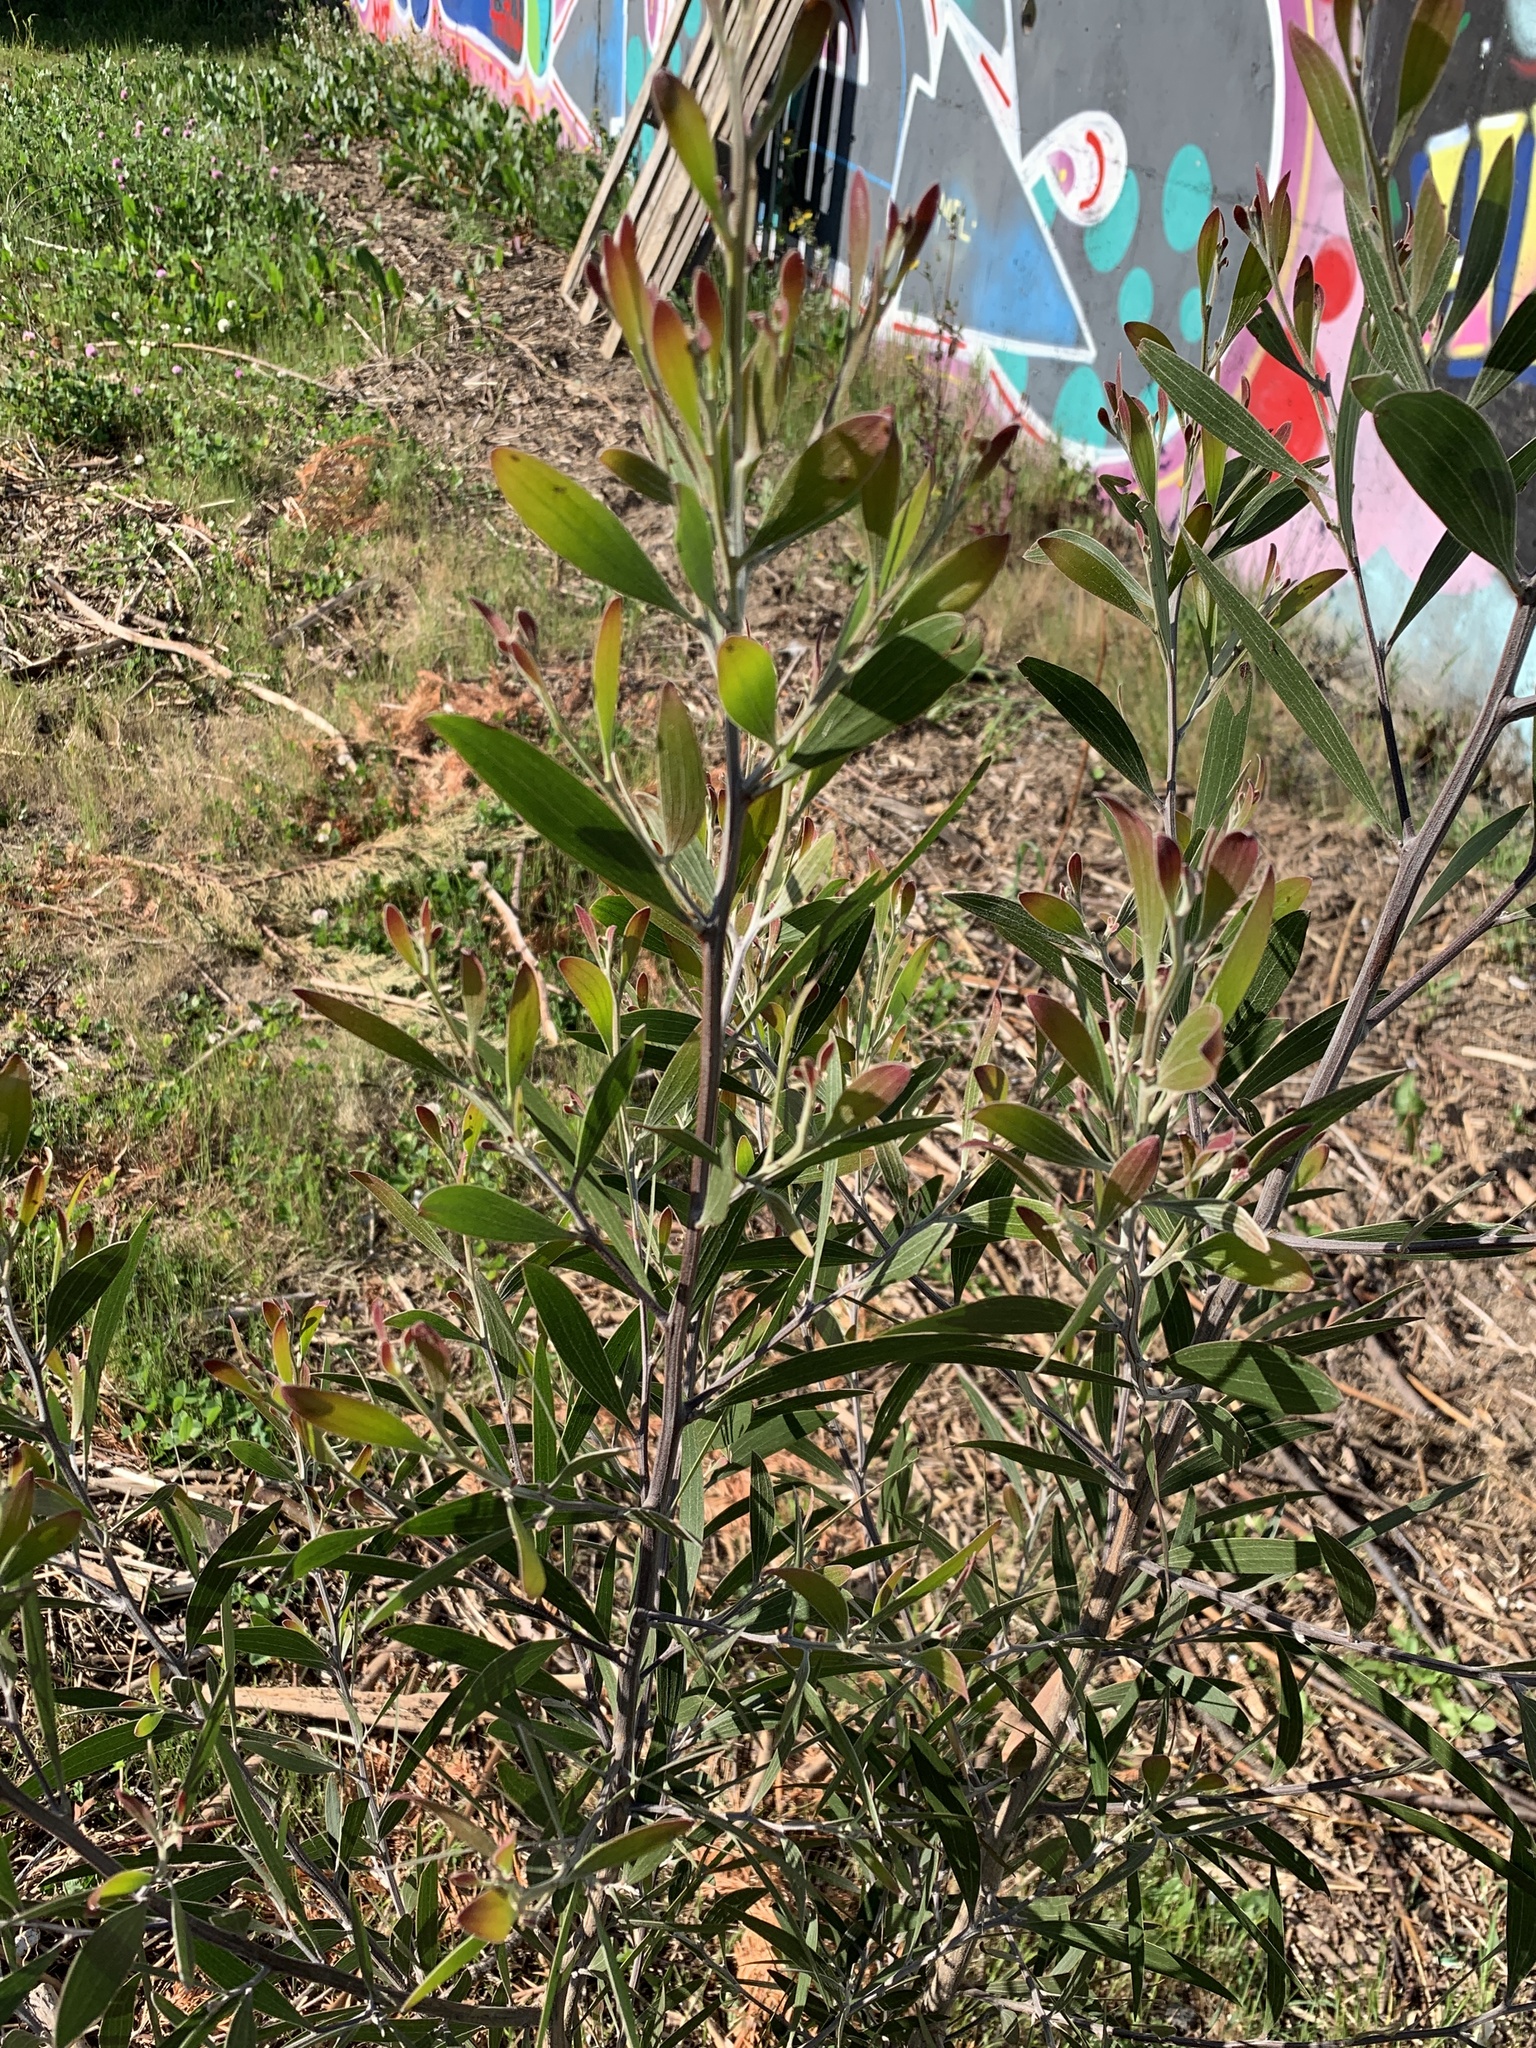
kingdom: Plantae
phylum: Tracheophyta
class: Magnoliopsida
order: Fabales
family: Fabaceae
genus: Acacia
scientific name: Acacia melanoxylon
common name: Blackwood
